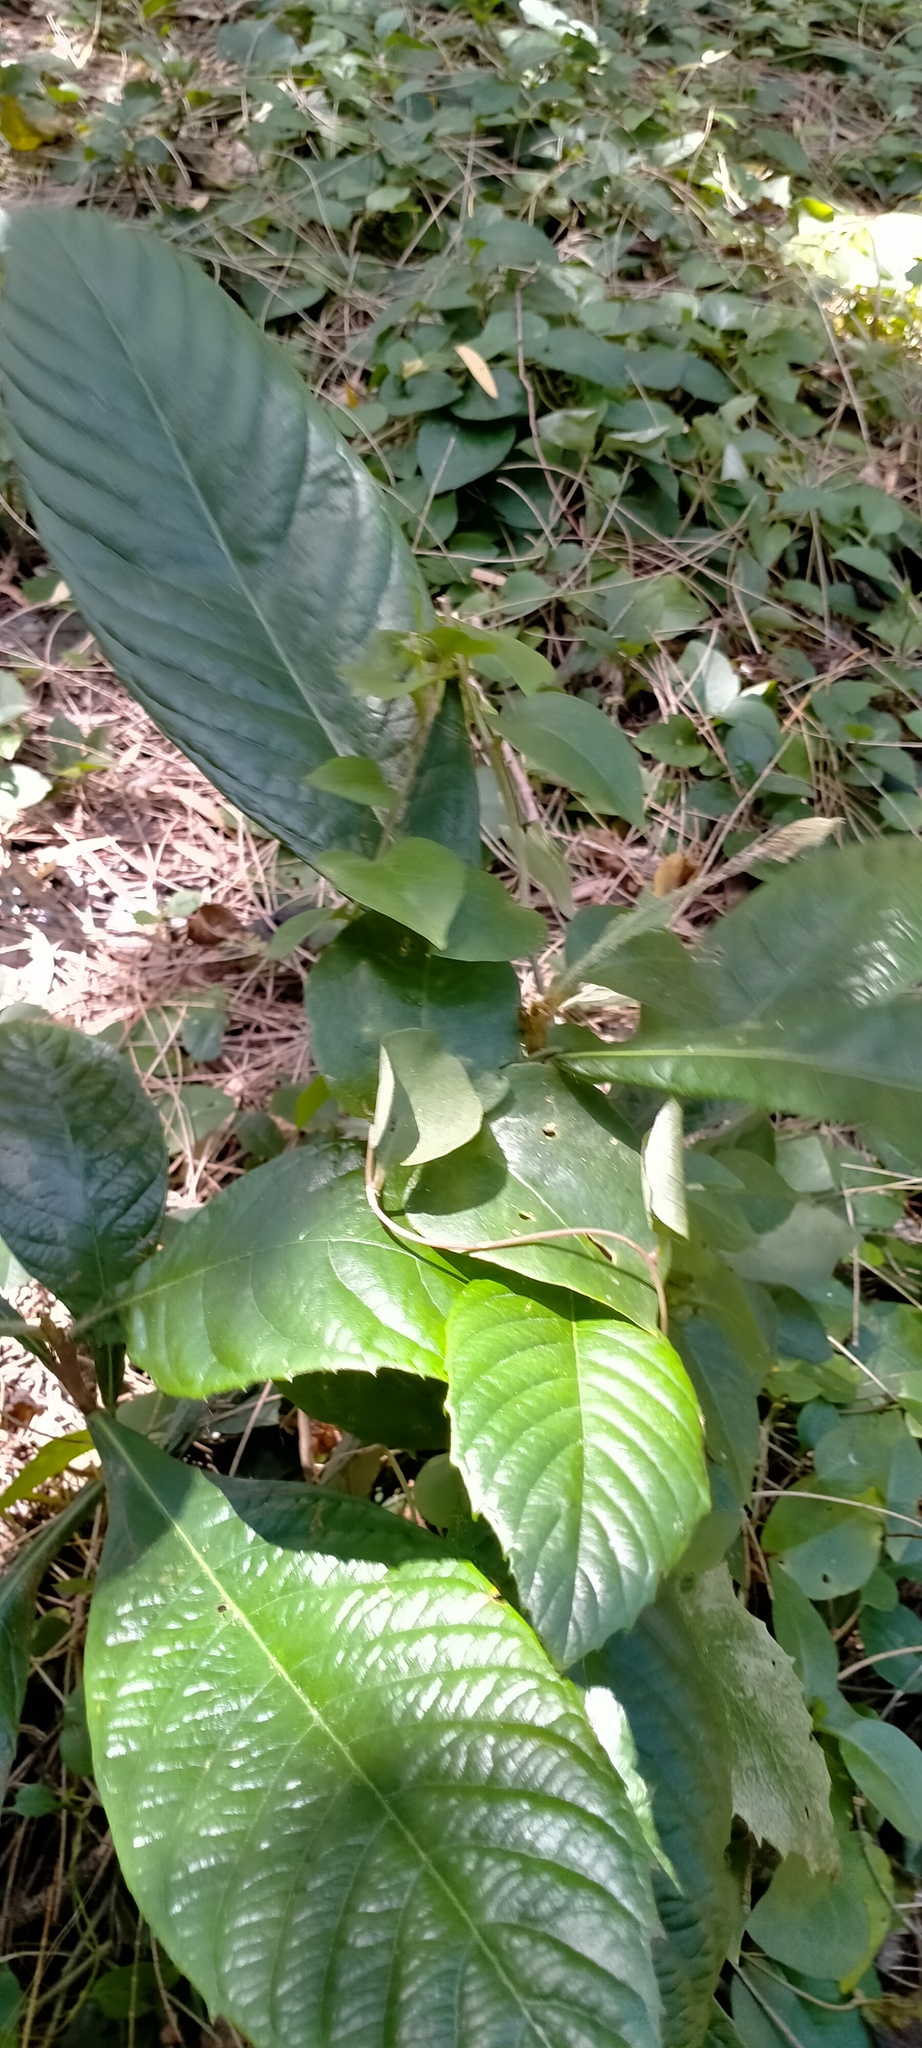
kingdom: Plantae
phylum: Tracheophyta
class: Magnoliopsida
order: Caryophyllales
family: Basellaceae
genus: Anredera
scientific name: Anredera cordifolia
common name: Heartleaf madeiravine
